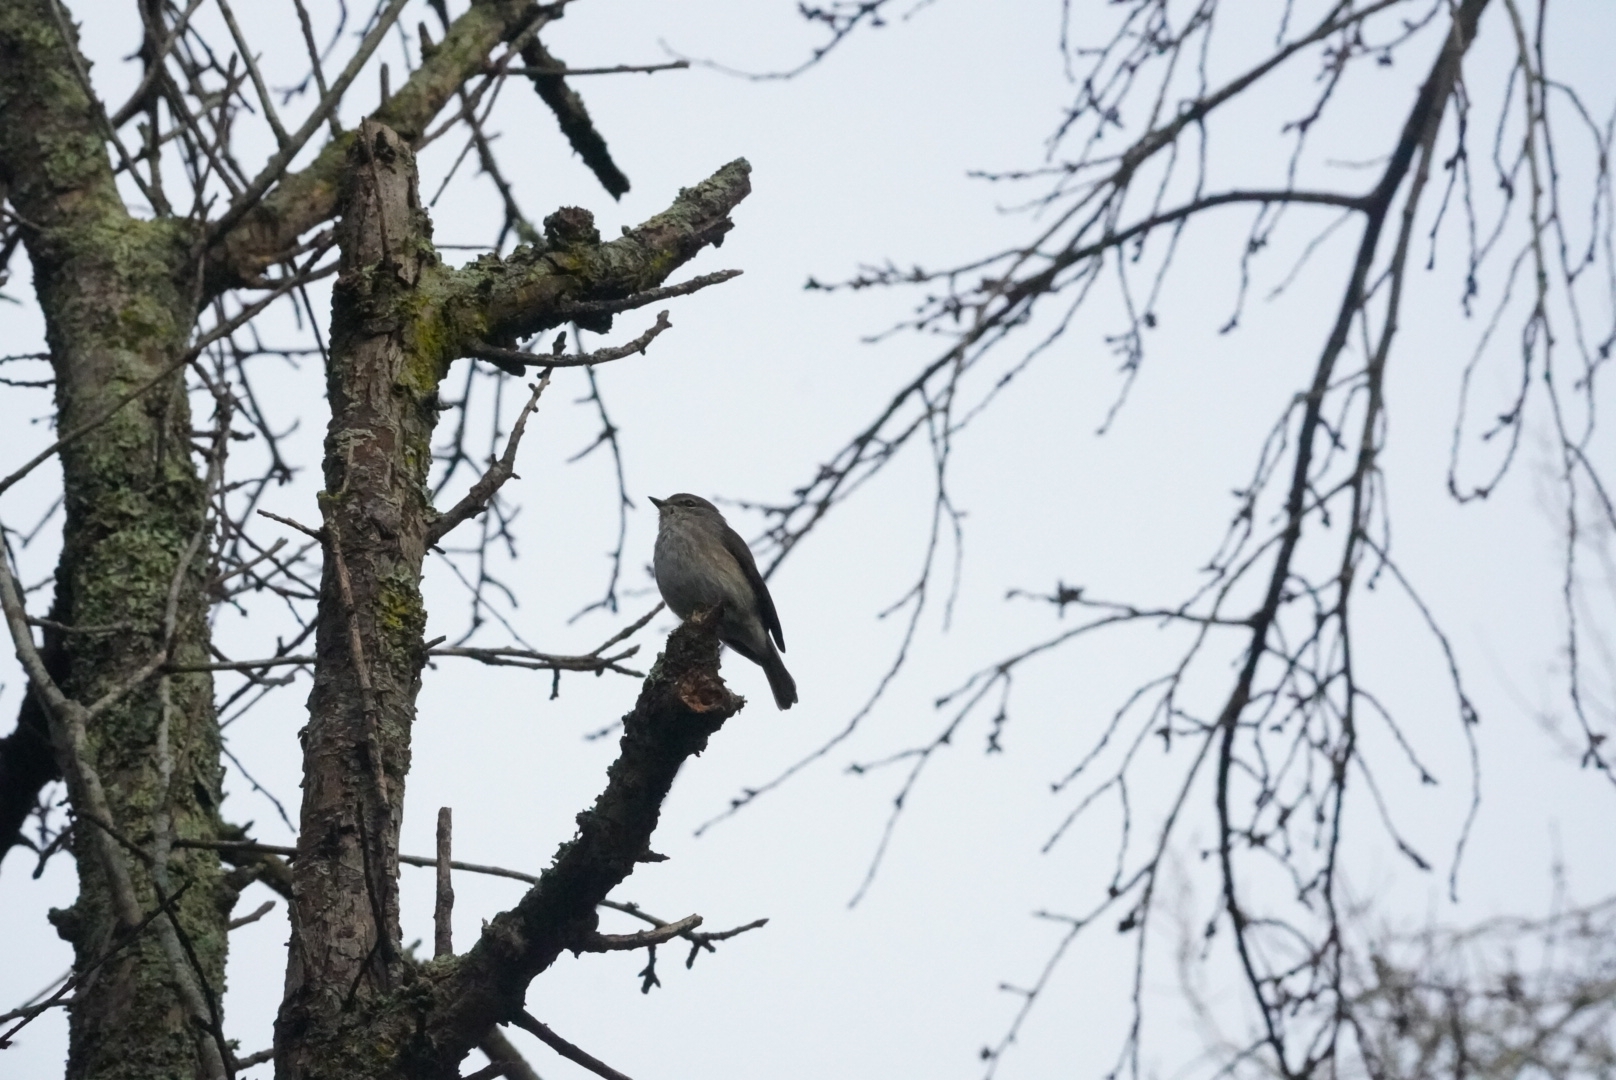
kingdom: Animalia
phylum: Chordata
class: Aves
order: Passeriformes
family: Muscicapidae
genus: Muscicapa
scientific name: Muscicapa adusta
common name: African dusky flycatcher
